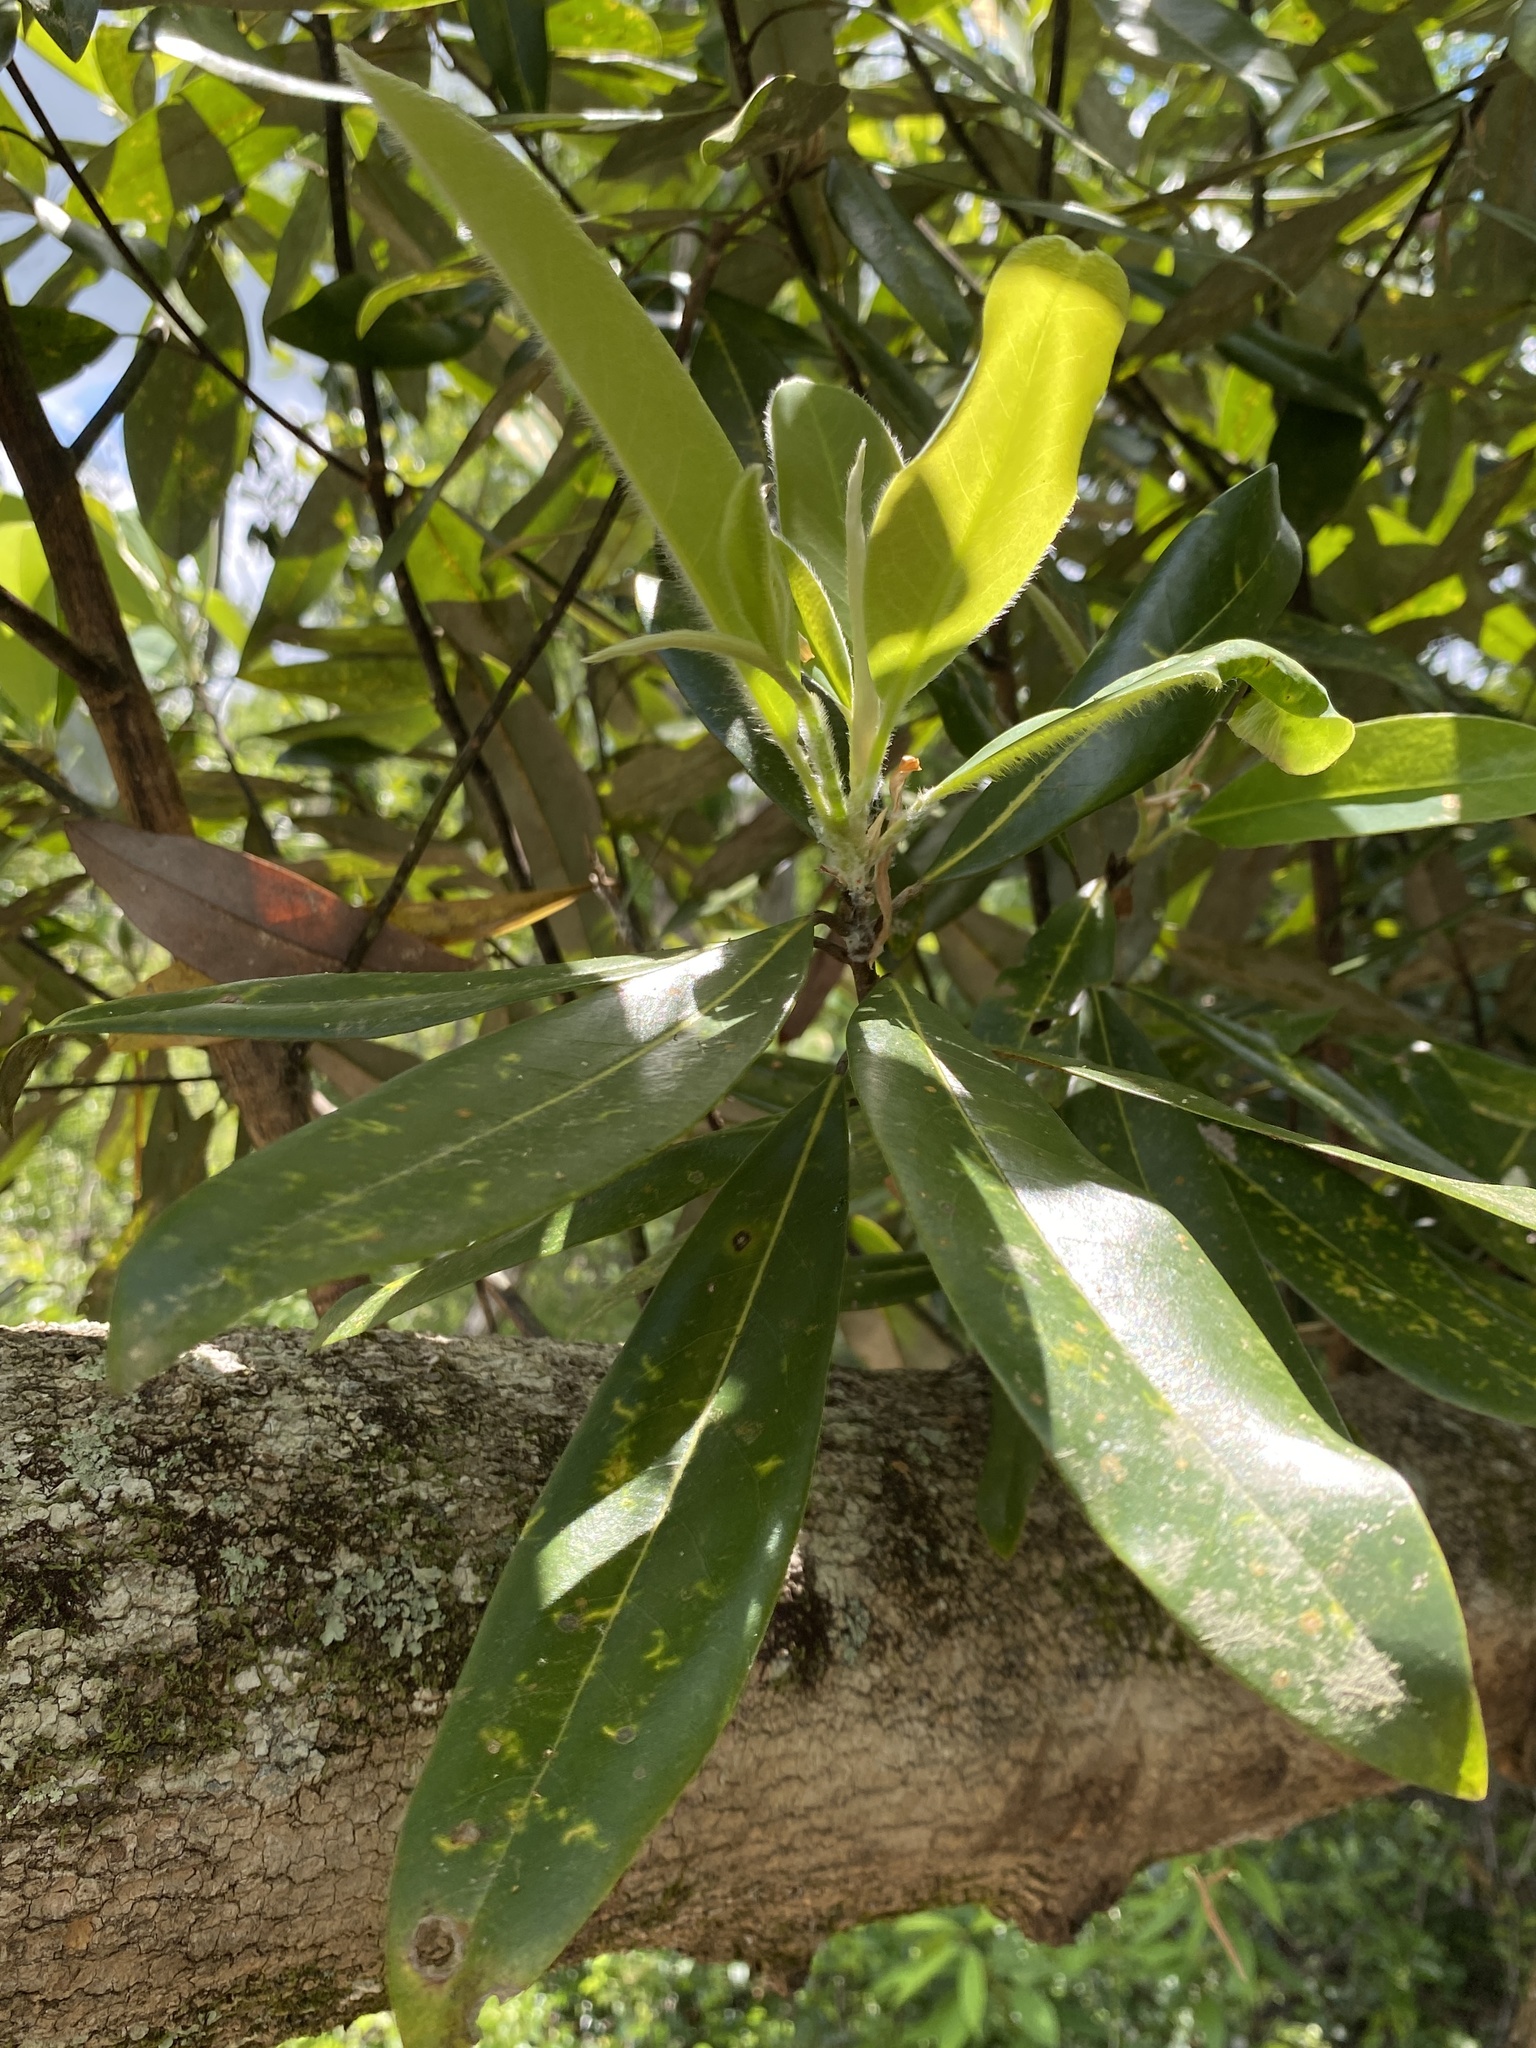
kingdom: Plantae
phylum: Tracheophyta
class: Magnoliopsida
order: Magnoliales
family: Magnoliaceae
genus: Magnolia
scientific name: Magnolia virginiana
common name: Swamp bay
